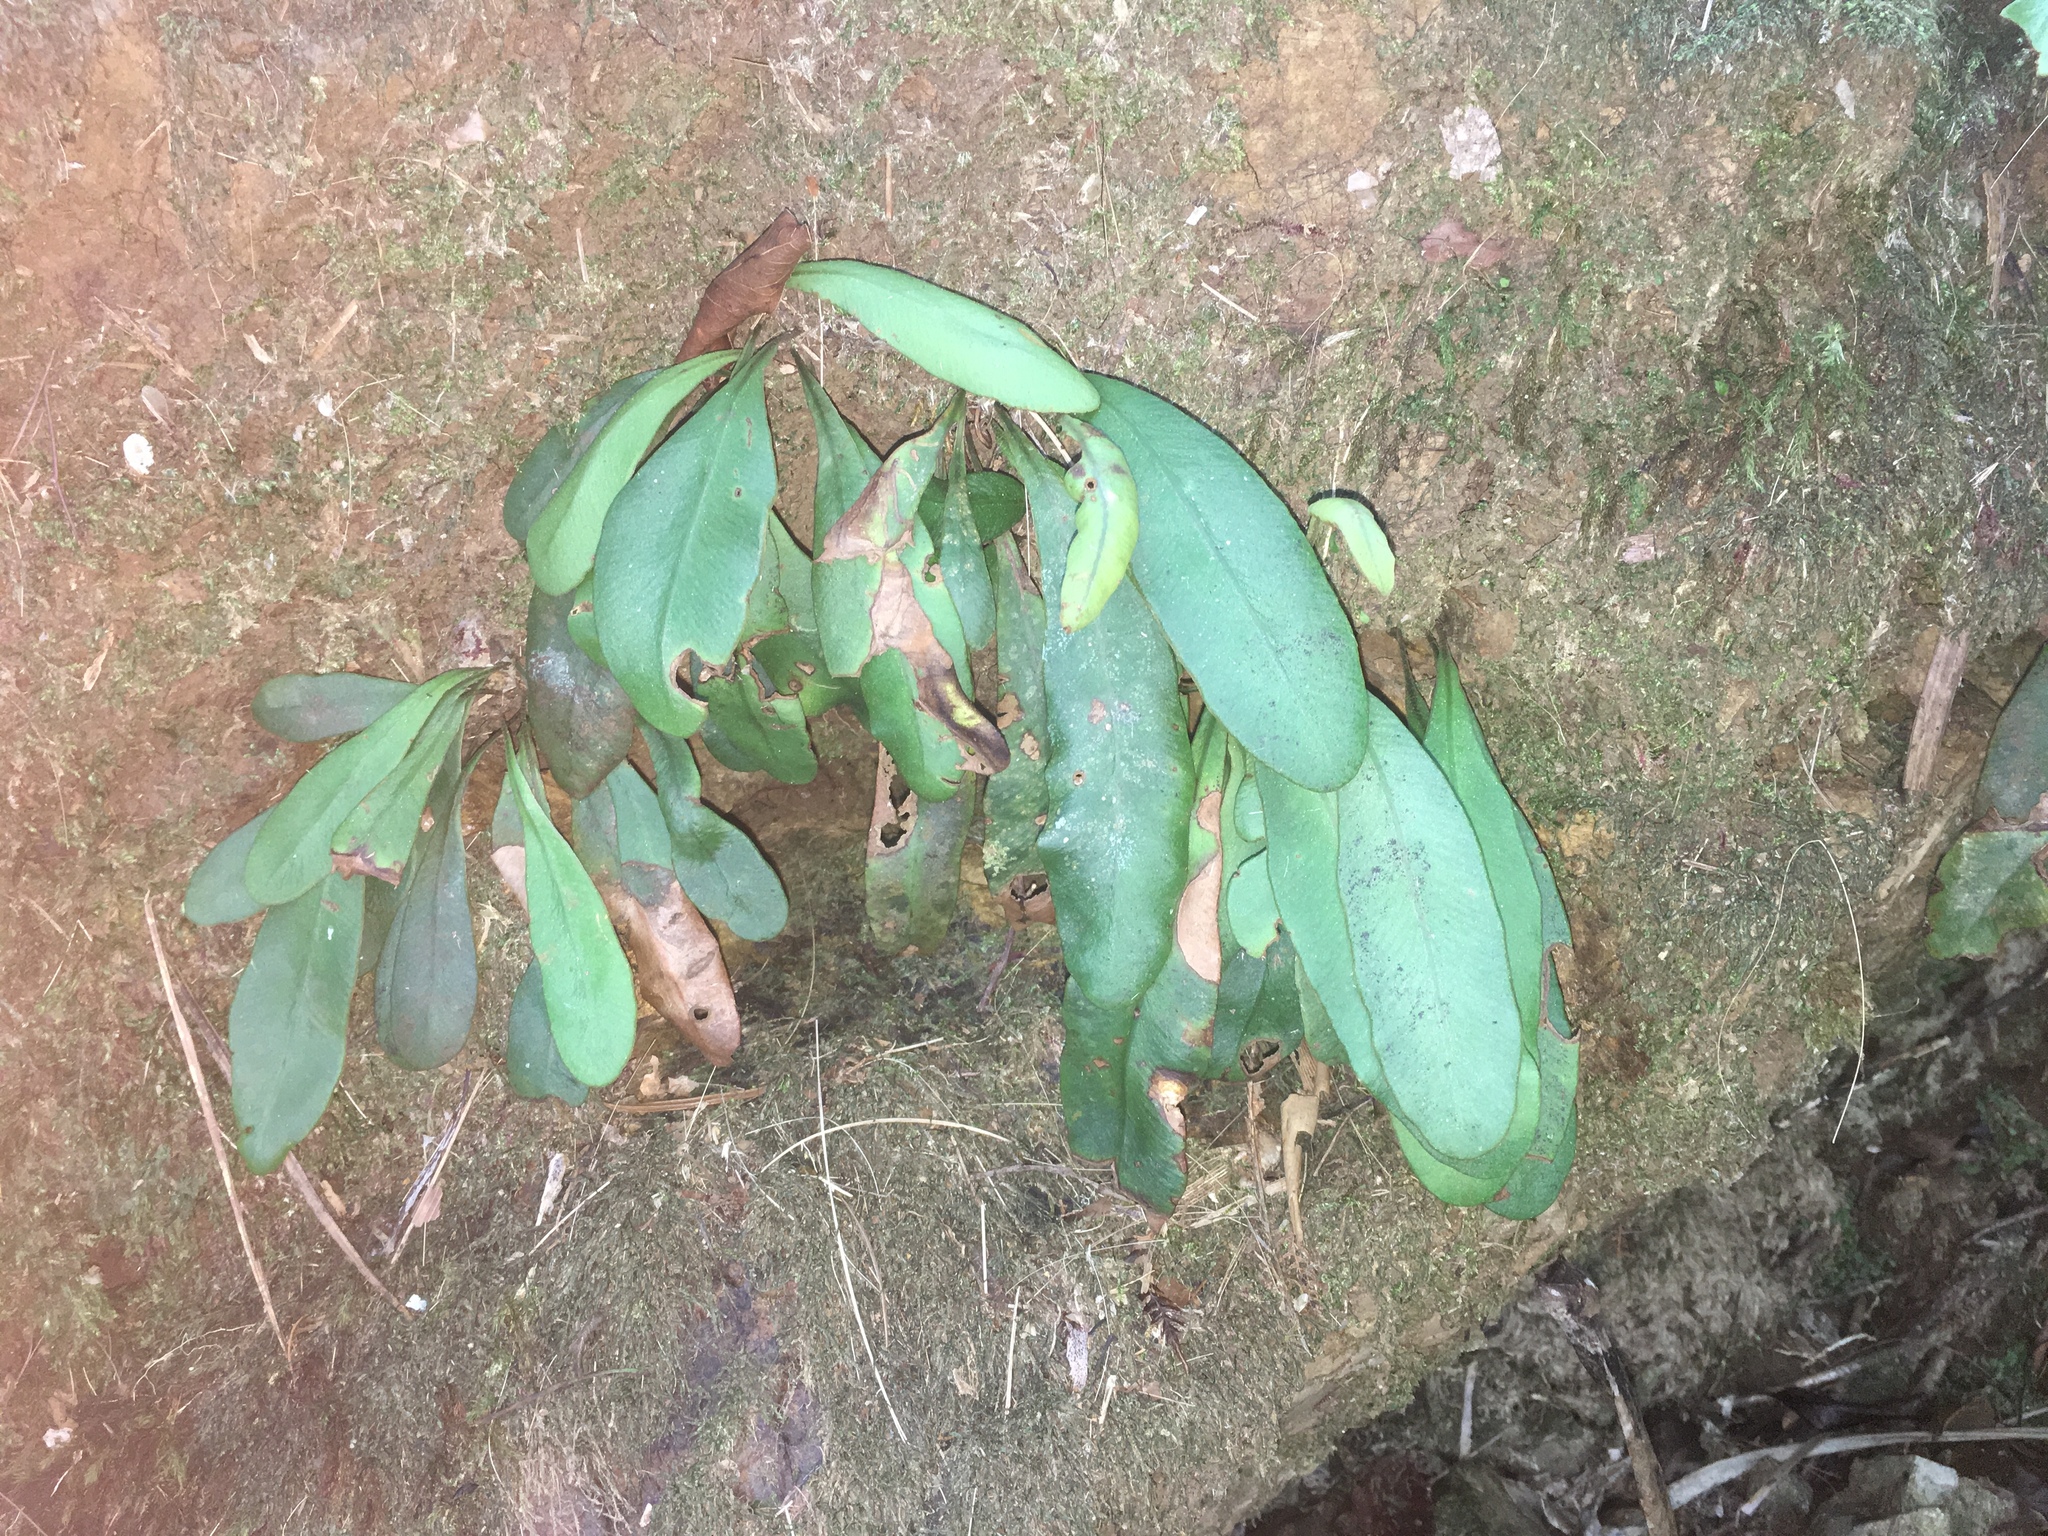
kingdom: Plantae
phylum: Tracheophyta
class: Polypodiopsida
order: Polypodiales
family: Dryopteridaceae
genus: Elaphoglossum
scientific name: Elaphoglossum glabratum
